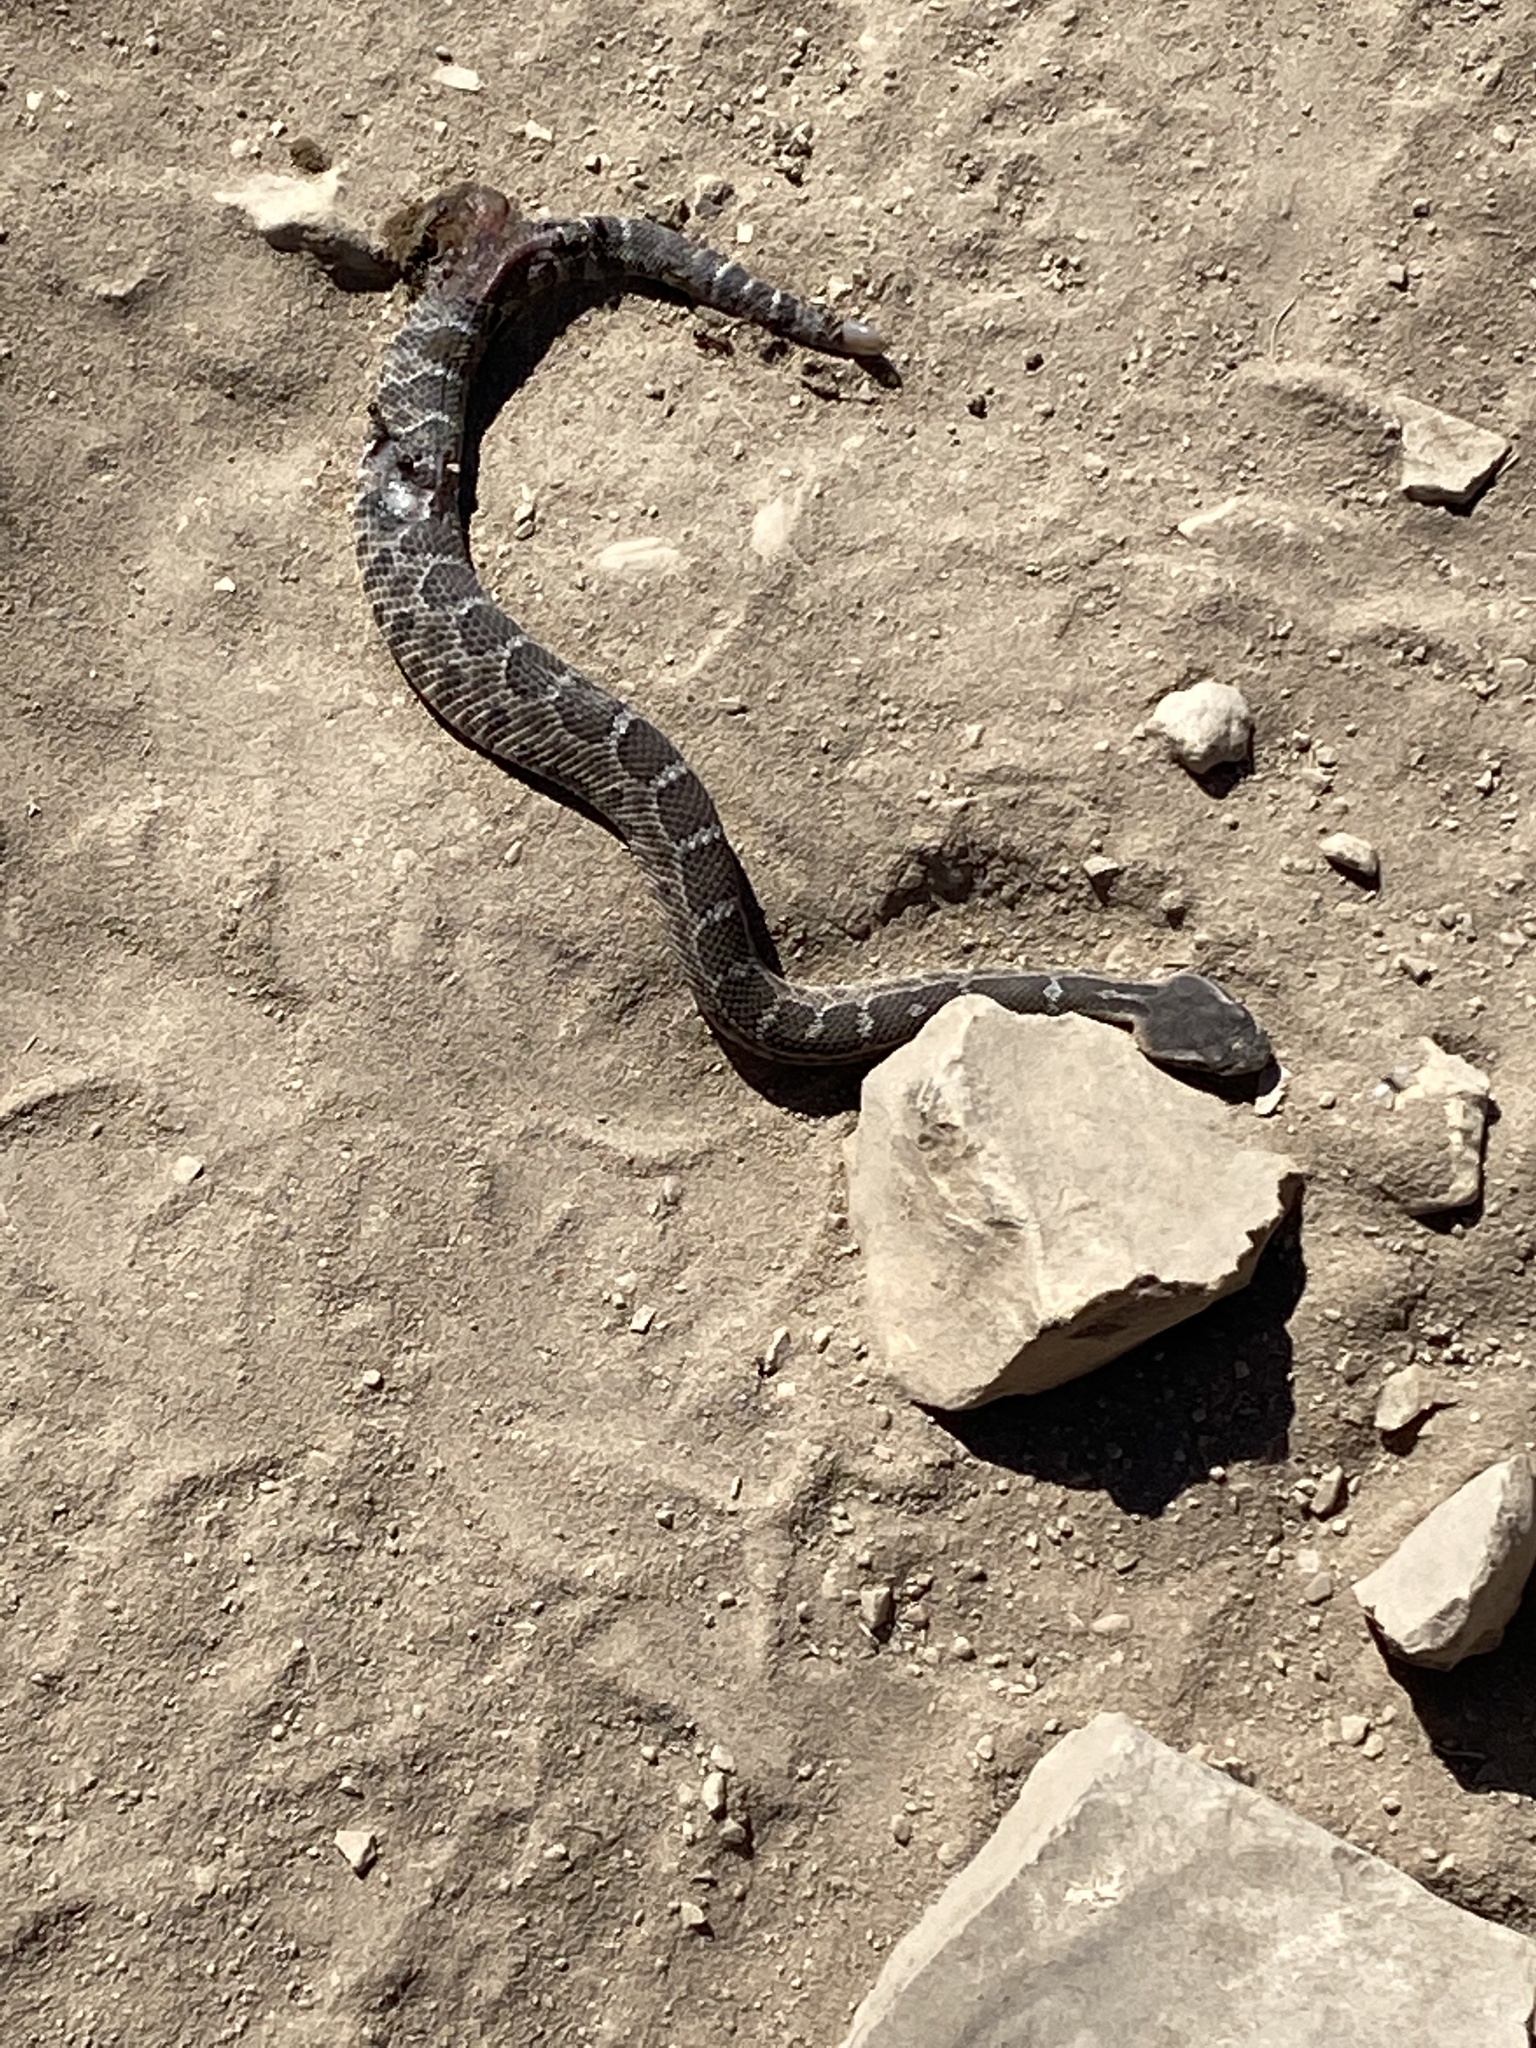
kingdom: Animalia
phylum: Chordata
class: Squamata
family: Viperidae
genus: Crotalus
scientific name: Crotalus oreganus
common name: Abyssus
